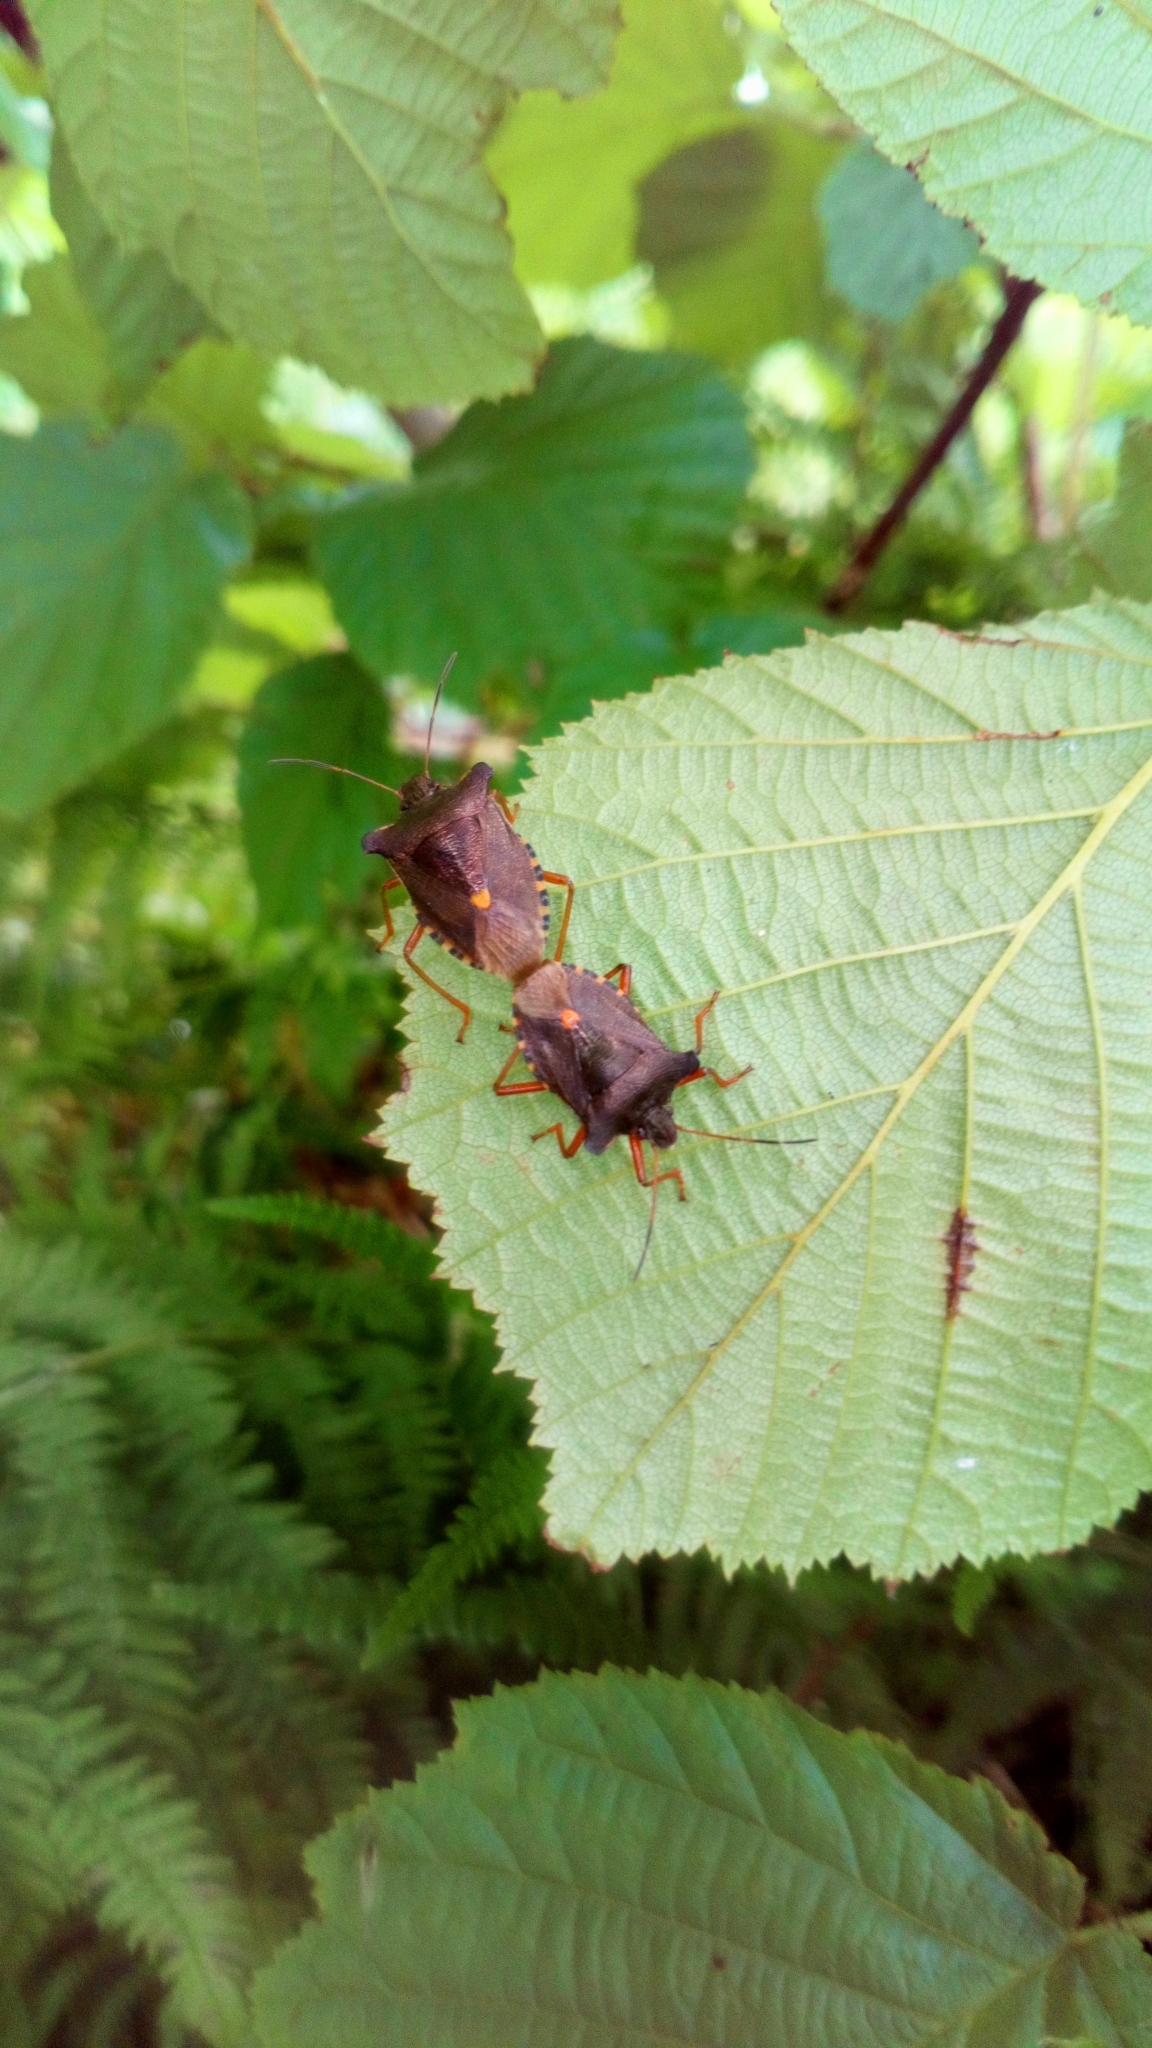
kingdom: Animalia
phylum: Arthropoda
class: Insecta
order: Hemiptera
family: Pentatomidae
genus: Pentatoma
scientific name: Pentatoma rufipes
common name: Forest bug
